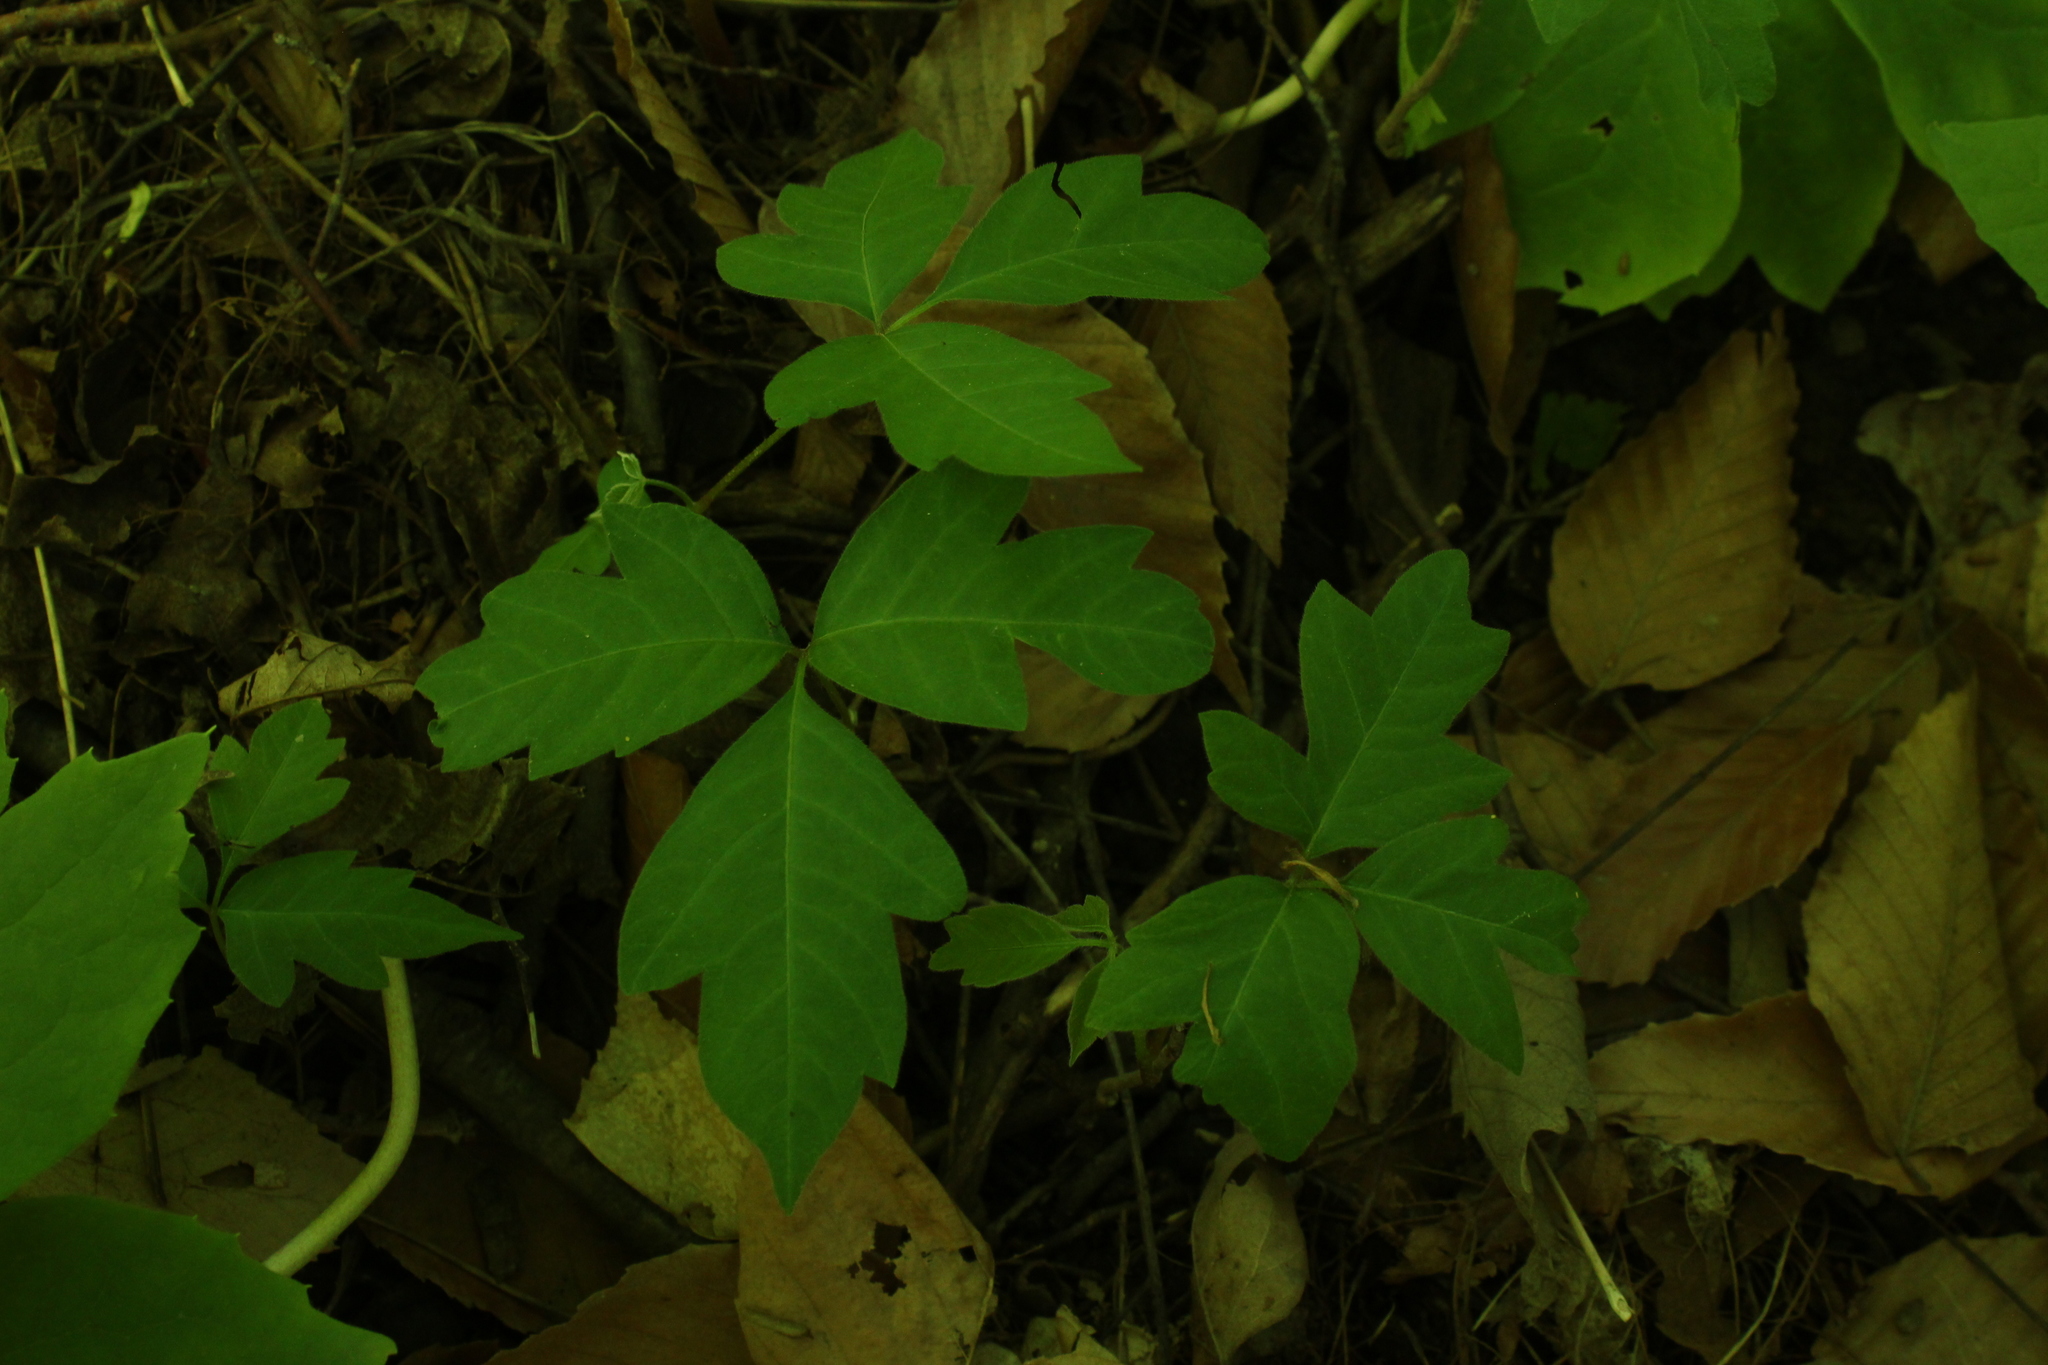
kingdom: Plantae
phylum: Tracheophyta
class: Magnoliopsida
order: Sapindales
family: Anacardiaceae
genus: Toxicodendron
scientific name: Toxicodendron rydbergii
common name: Rydberg's poison-ivy
